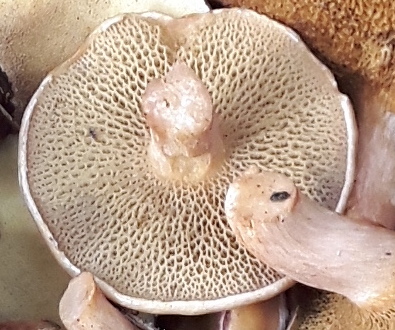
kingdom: Fungi
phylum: Basidiomycota
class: Agaricomycetes
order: Boletales
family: Suillaceae
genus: Suillus
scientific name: Suillus bovinus
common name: Bovine bolete
